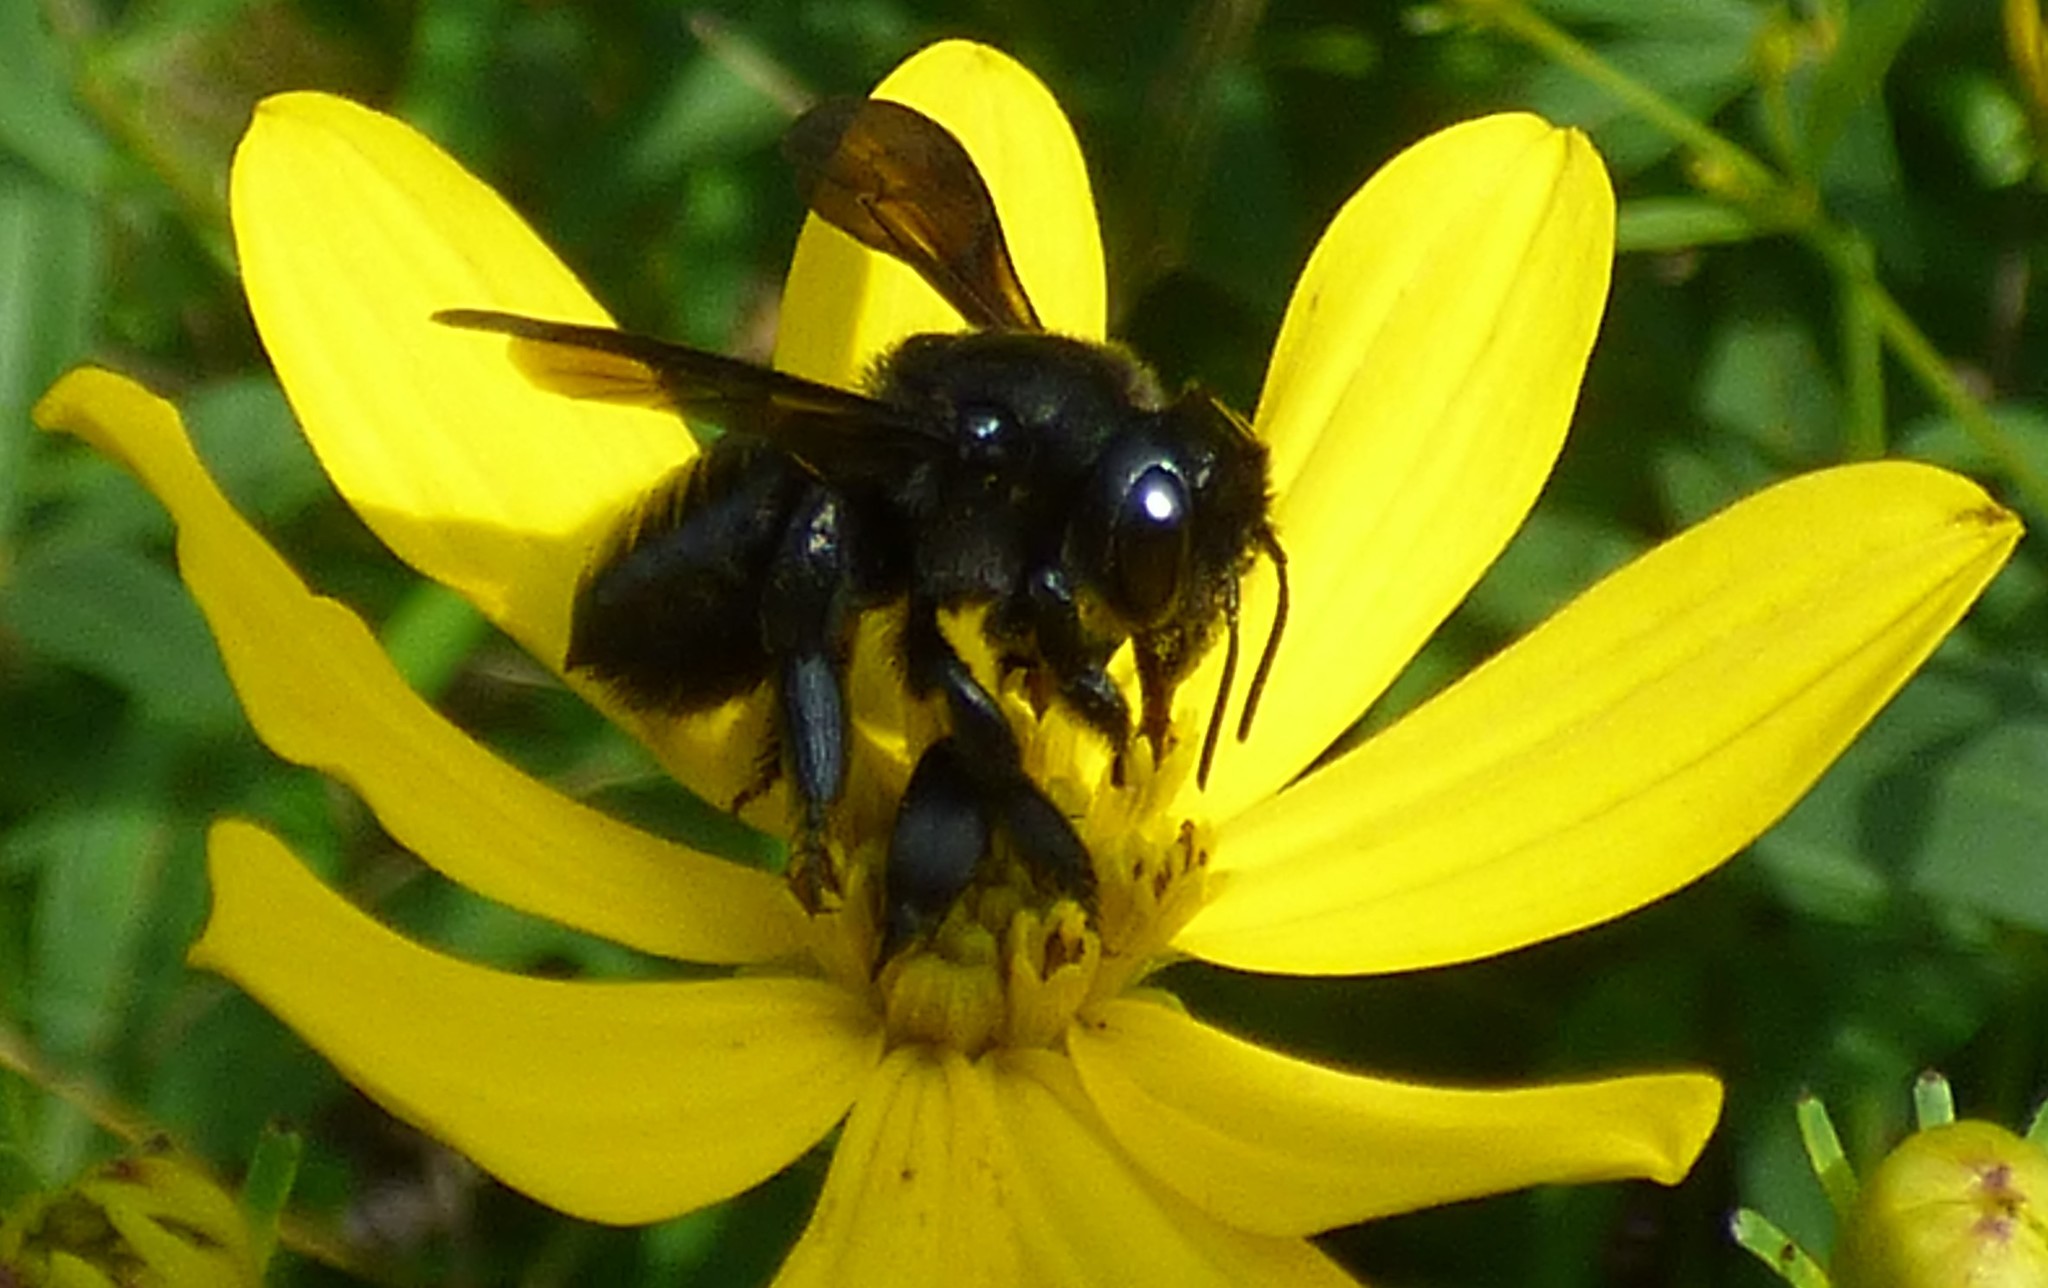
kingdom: Animalia
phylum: Arthropoda
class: Insecta
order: Hymenoptera
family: Megachilidae
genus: Megachile
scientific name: Megachile xylocopoides
